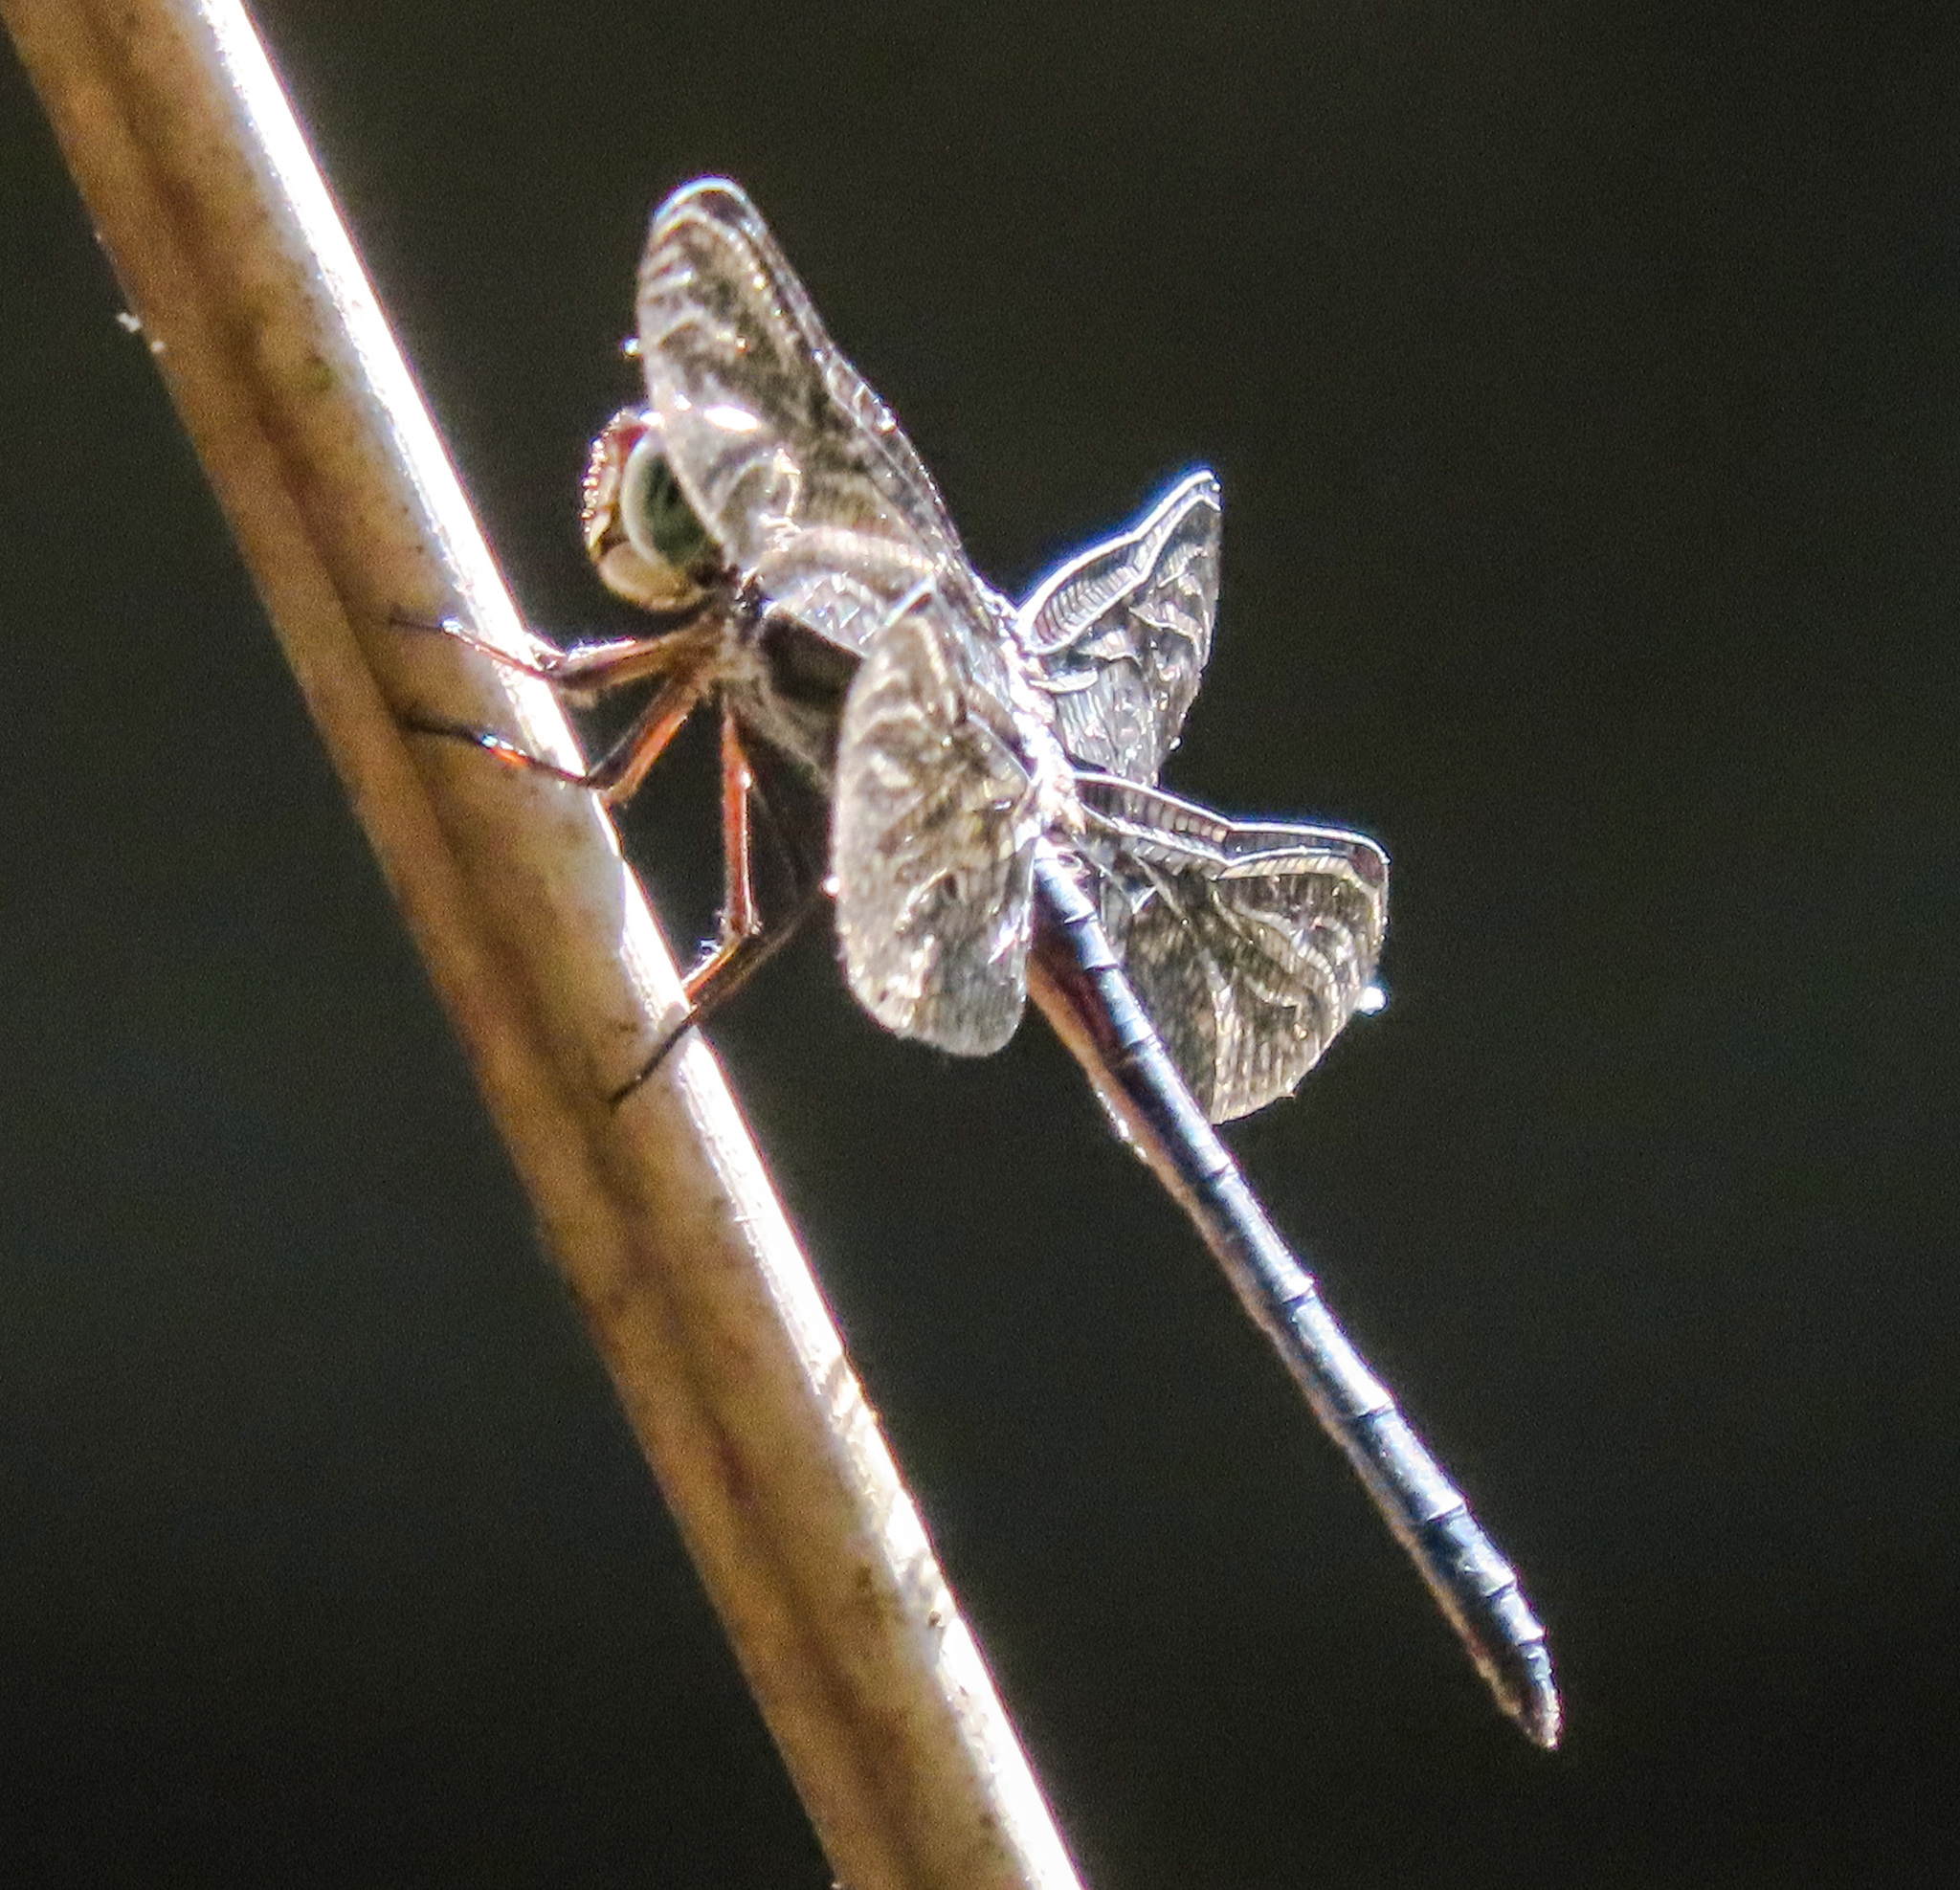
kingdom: Animalia
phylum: Arthropoda
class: Insecta
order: Odonata
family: Libellulidae
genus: Cratilla
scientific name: Cratilla lineata
